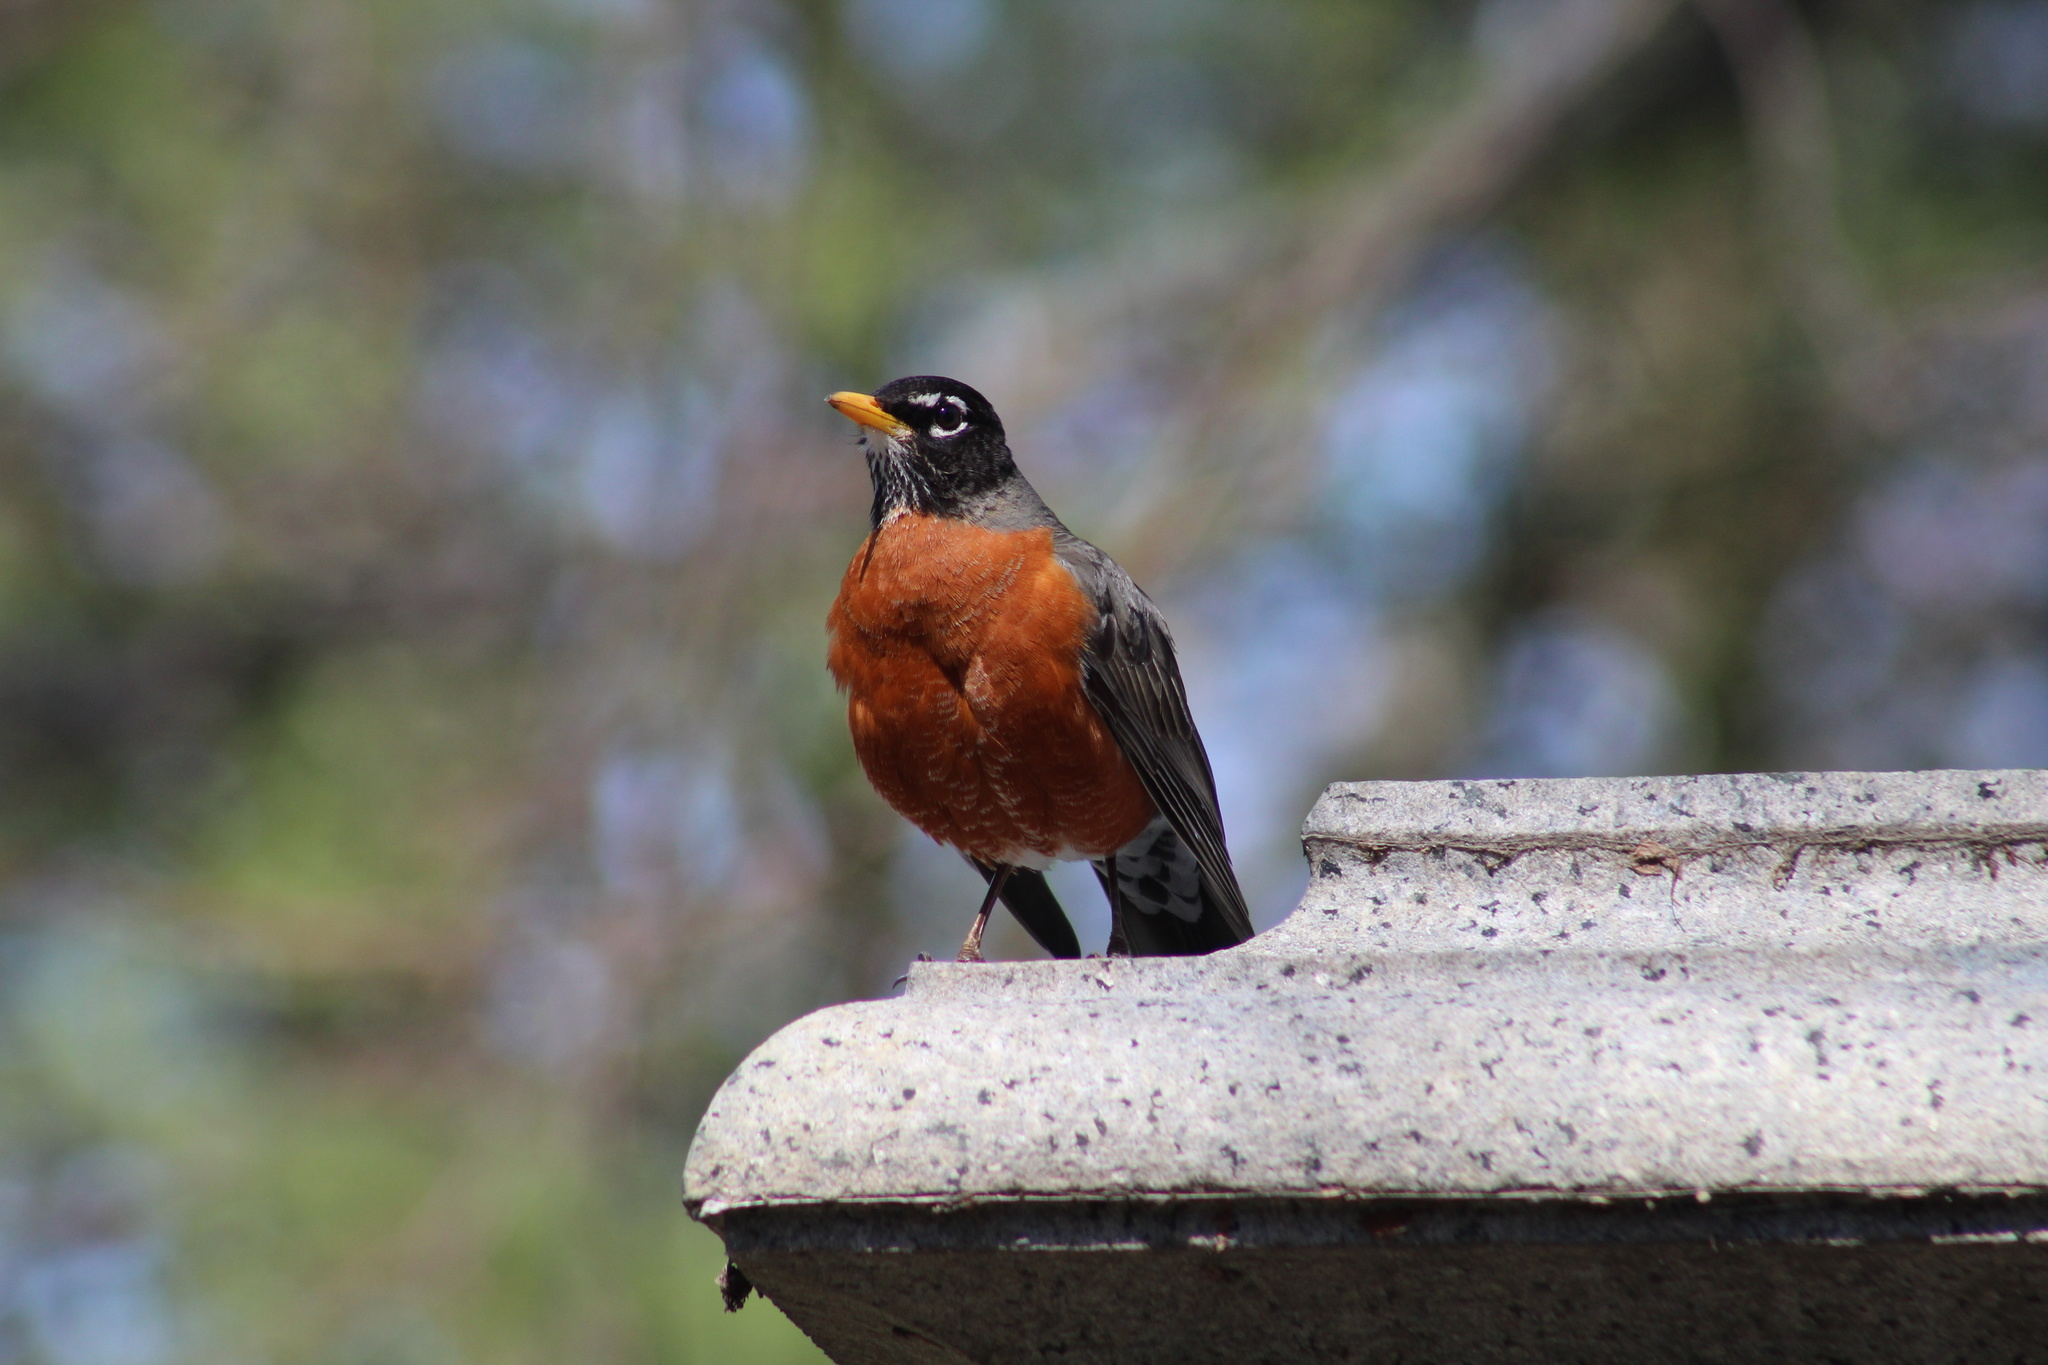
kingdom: Animalia
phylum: Chordata
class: Aves
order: Passeriformes
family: Turdidae
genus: Turdus
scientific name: Turdus migratorius
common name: American robin
